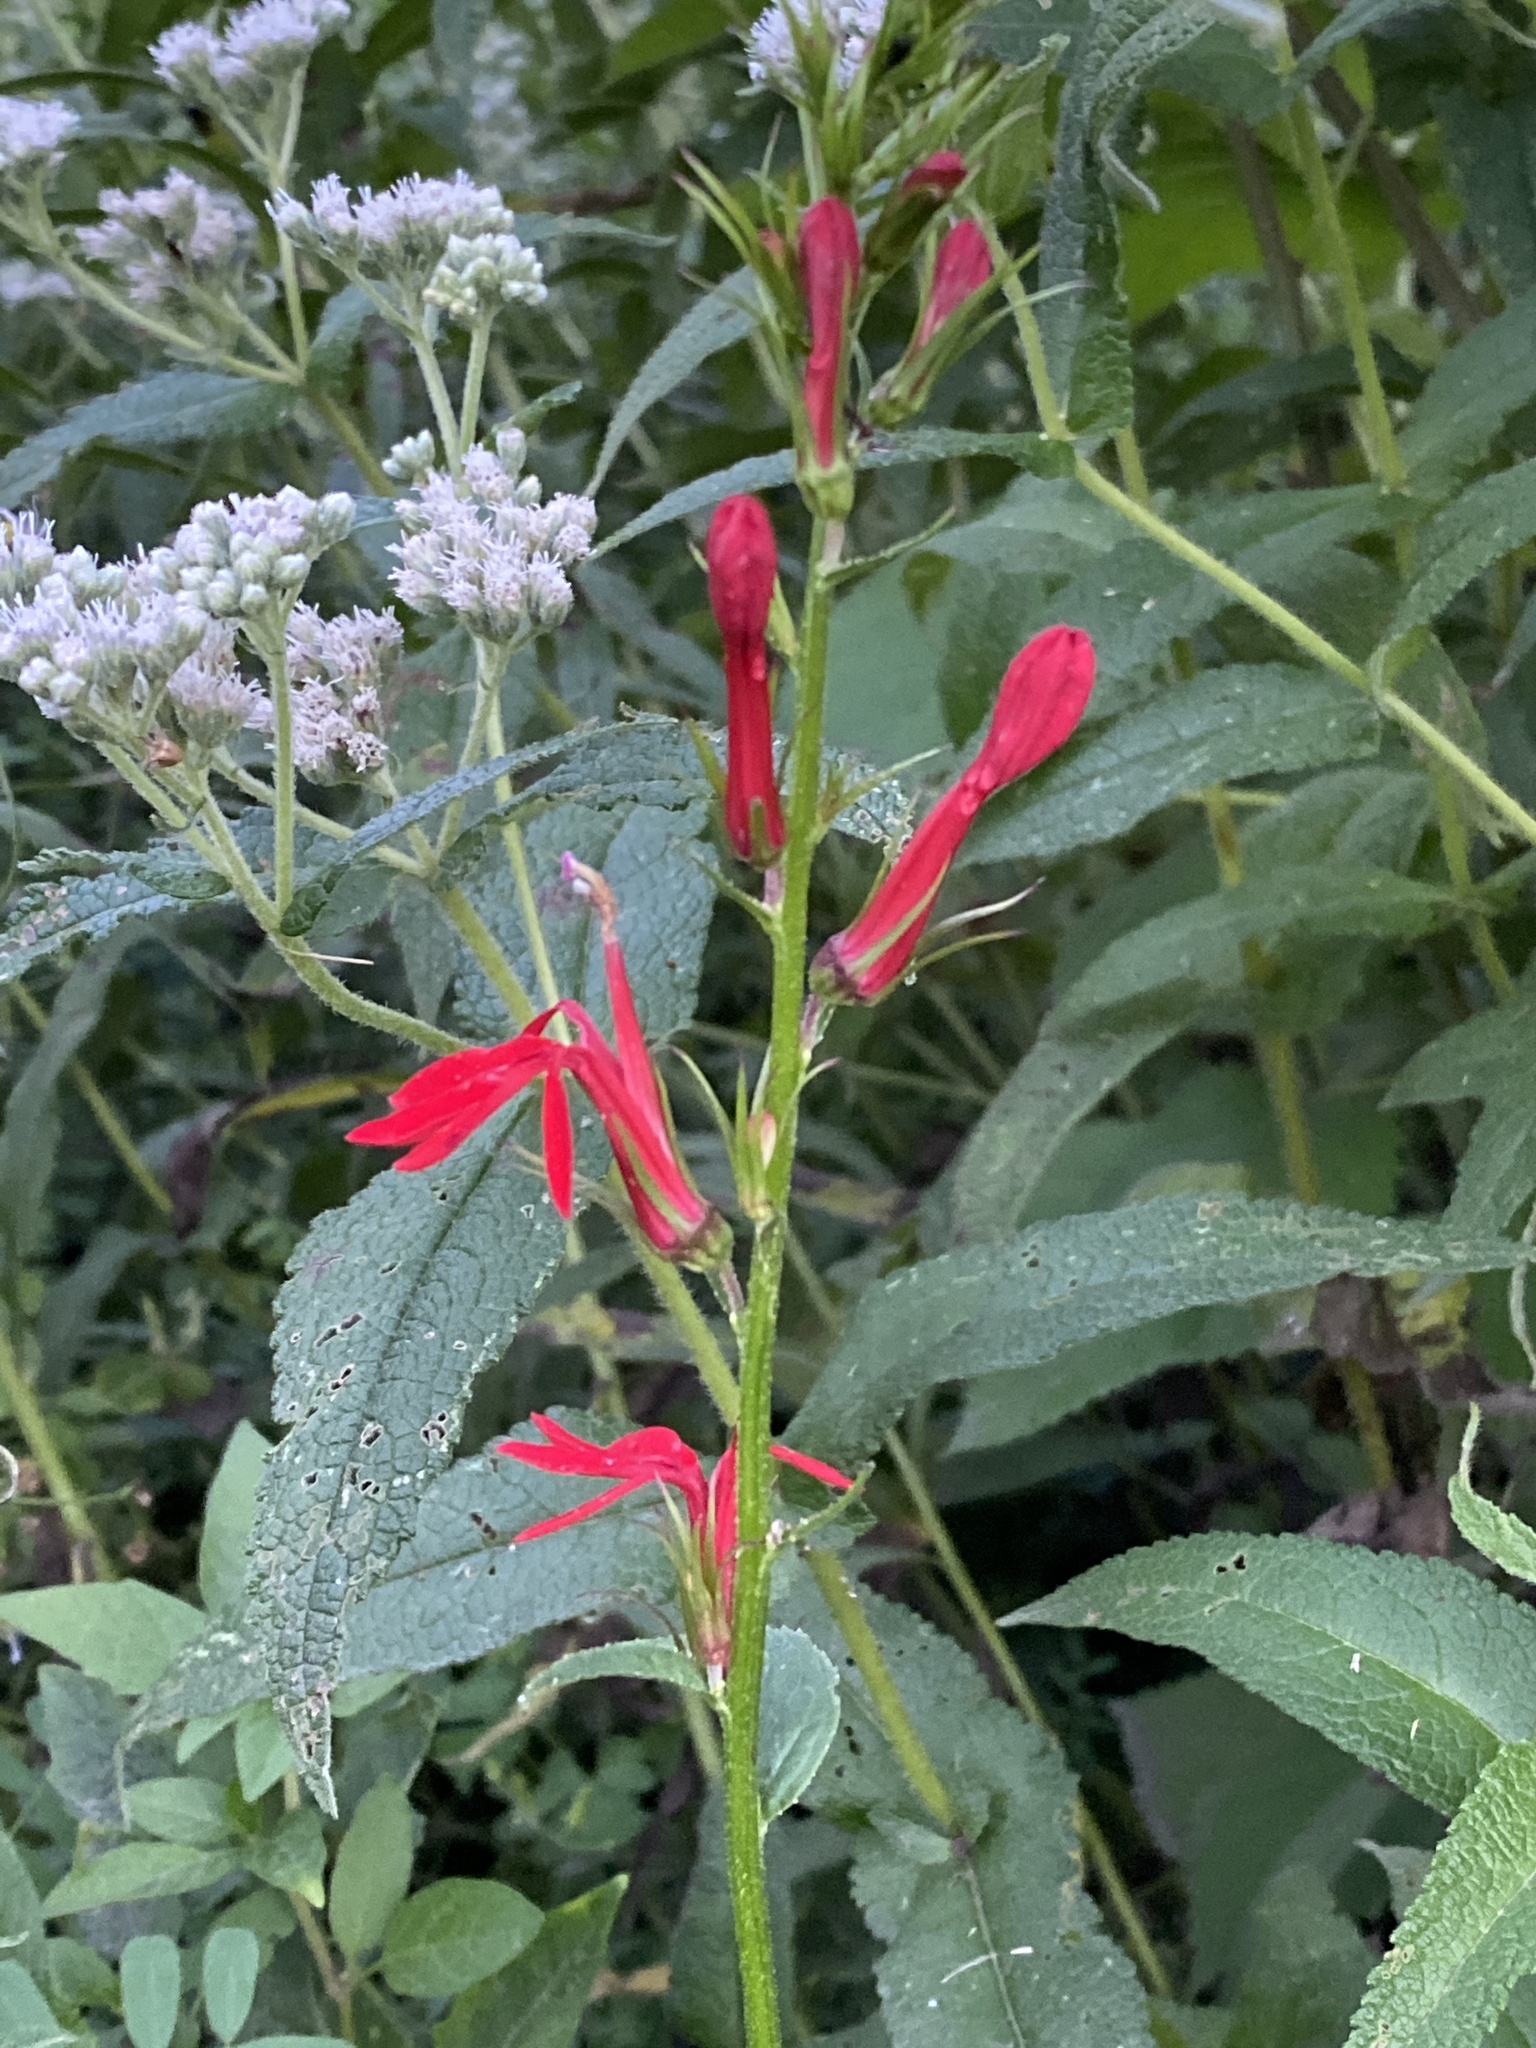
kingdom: Plantae
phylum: Tracheophyta
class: Magnoliopsida
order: Asterales
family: Campanulaceae
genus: Lobelia
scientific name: Lobelia cardinalis
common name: Cardinal flower
